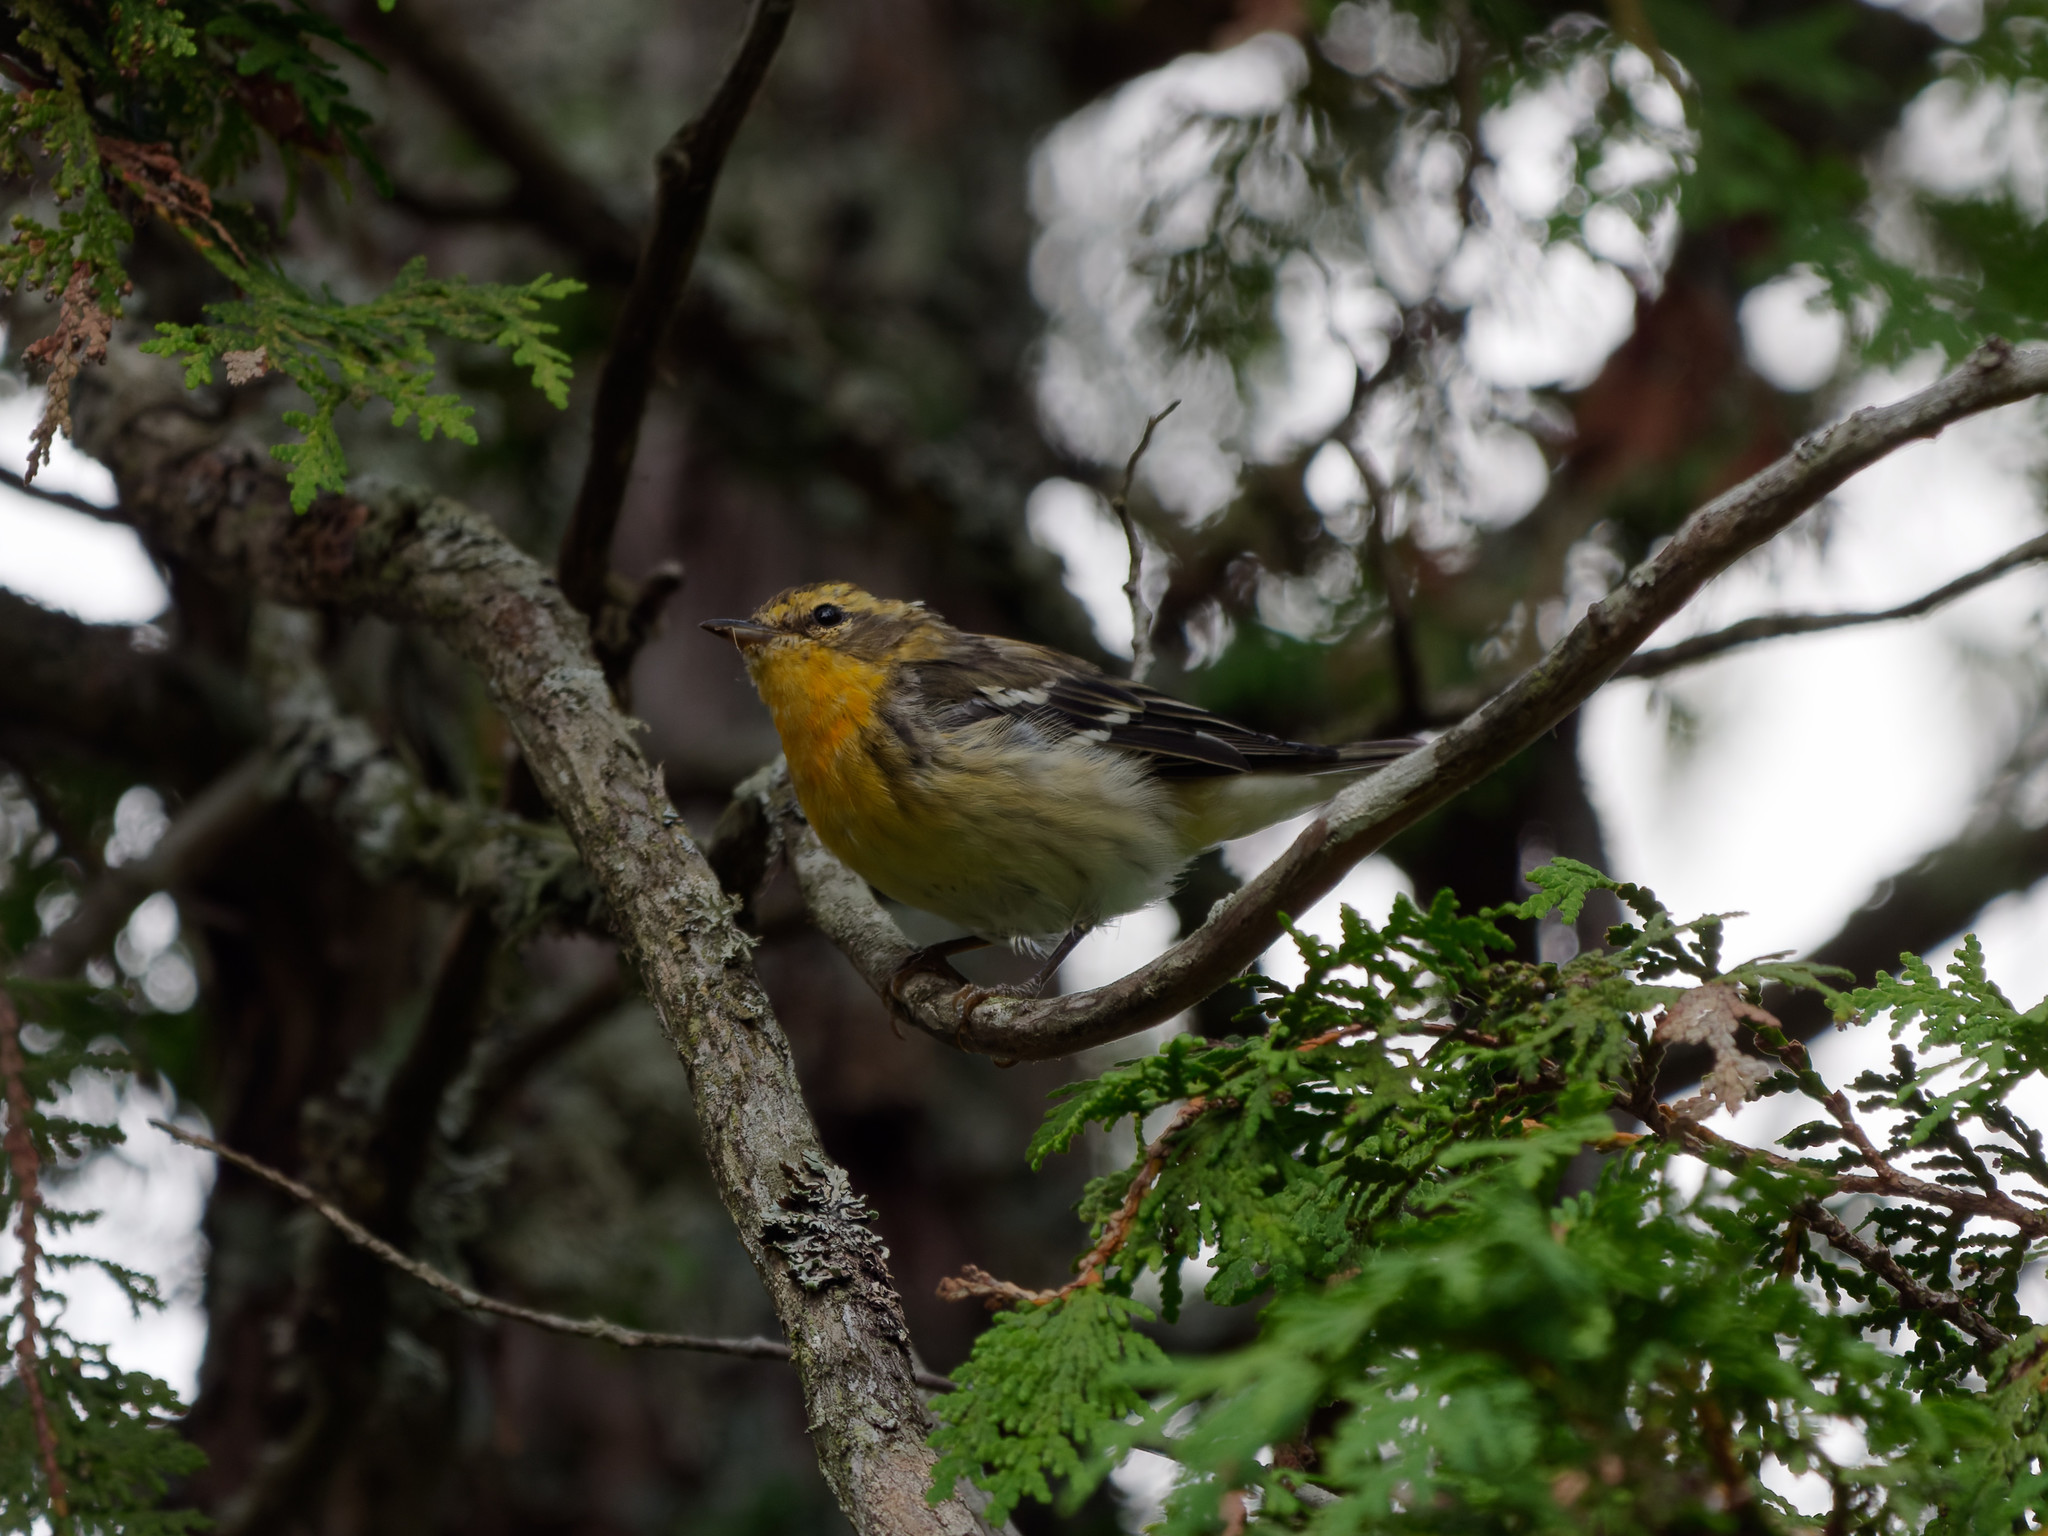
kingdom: Animalia
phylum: Chordata
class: Aves
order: Passeriformes
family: Parulidae
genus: Setophaga
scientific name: Setophaga fusca
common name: Blackburnian warbler
